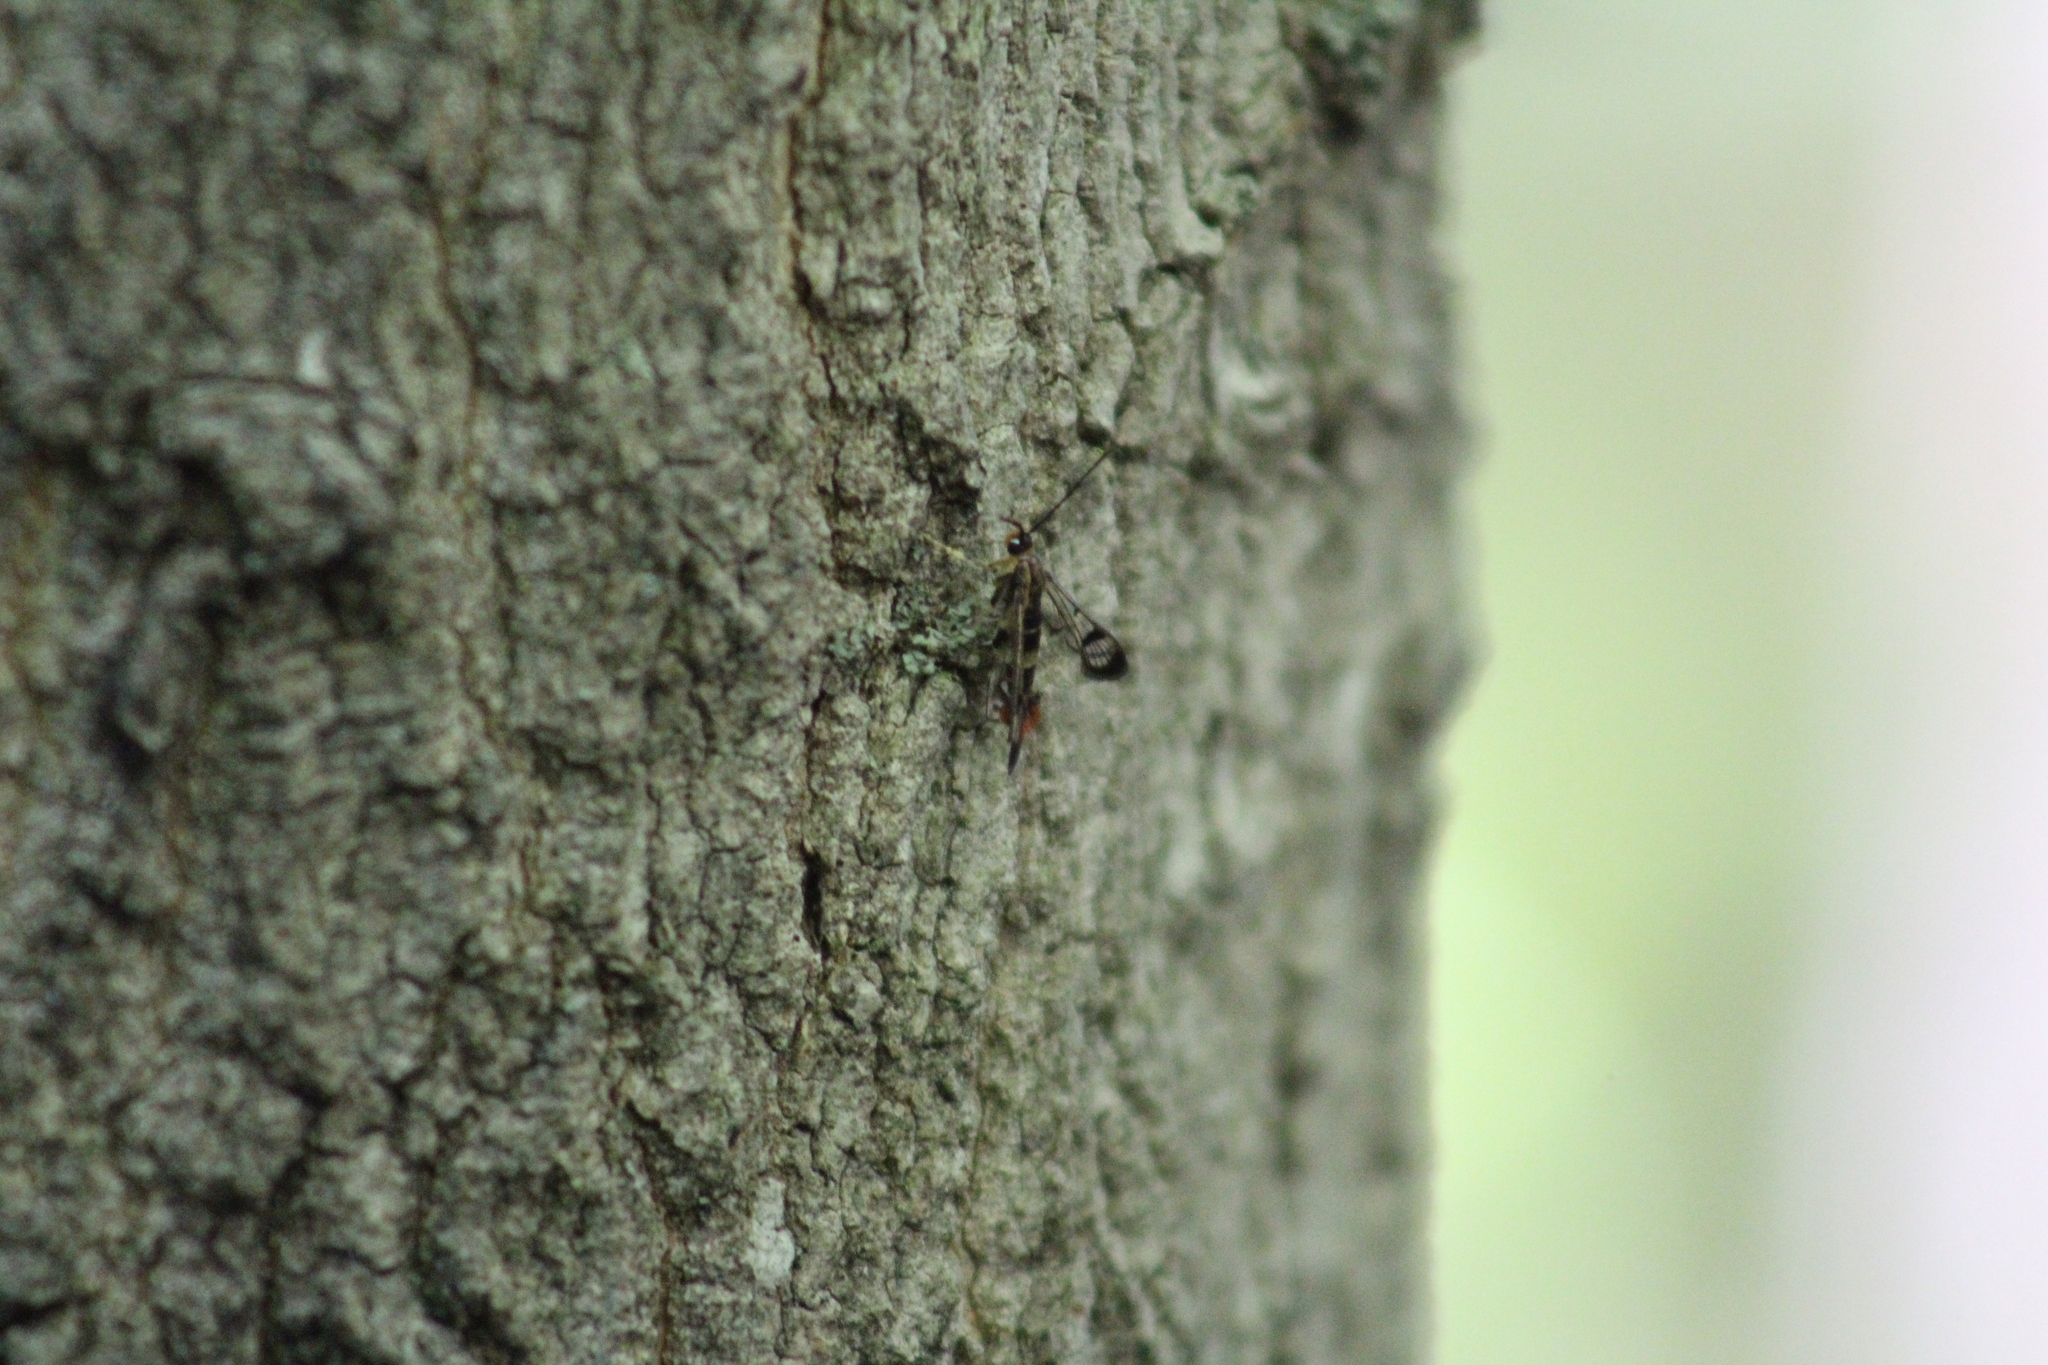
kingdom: Animalia
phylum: Arthropoda
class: Insecta
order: Lepidoptera
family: Sesiidae
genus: Synanthedon
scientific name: Synanthedon acerrubri
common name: Maple clearwing moth
